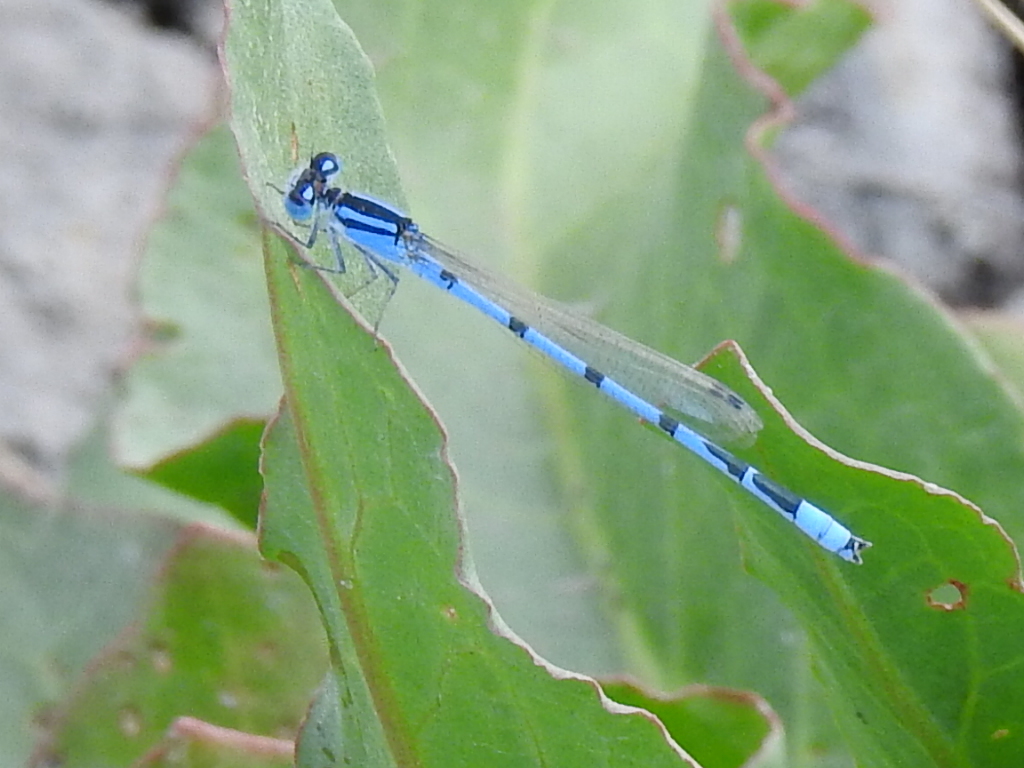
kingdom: Animalia
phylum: Arthropoda
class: Insecta
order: Odonata
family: Coenagrionidae
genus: Enallagma
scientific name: Enallagma civile
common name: Damselfly
